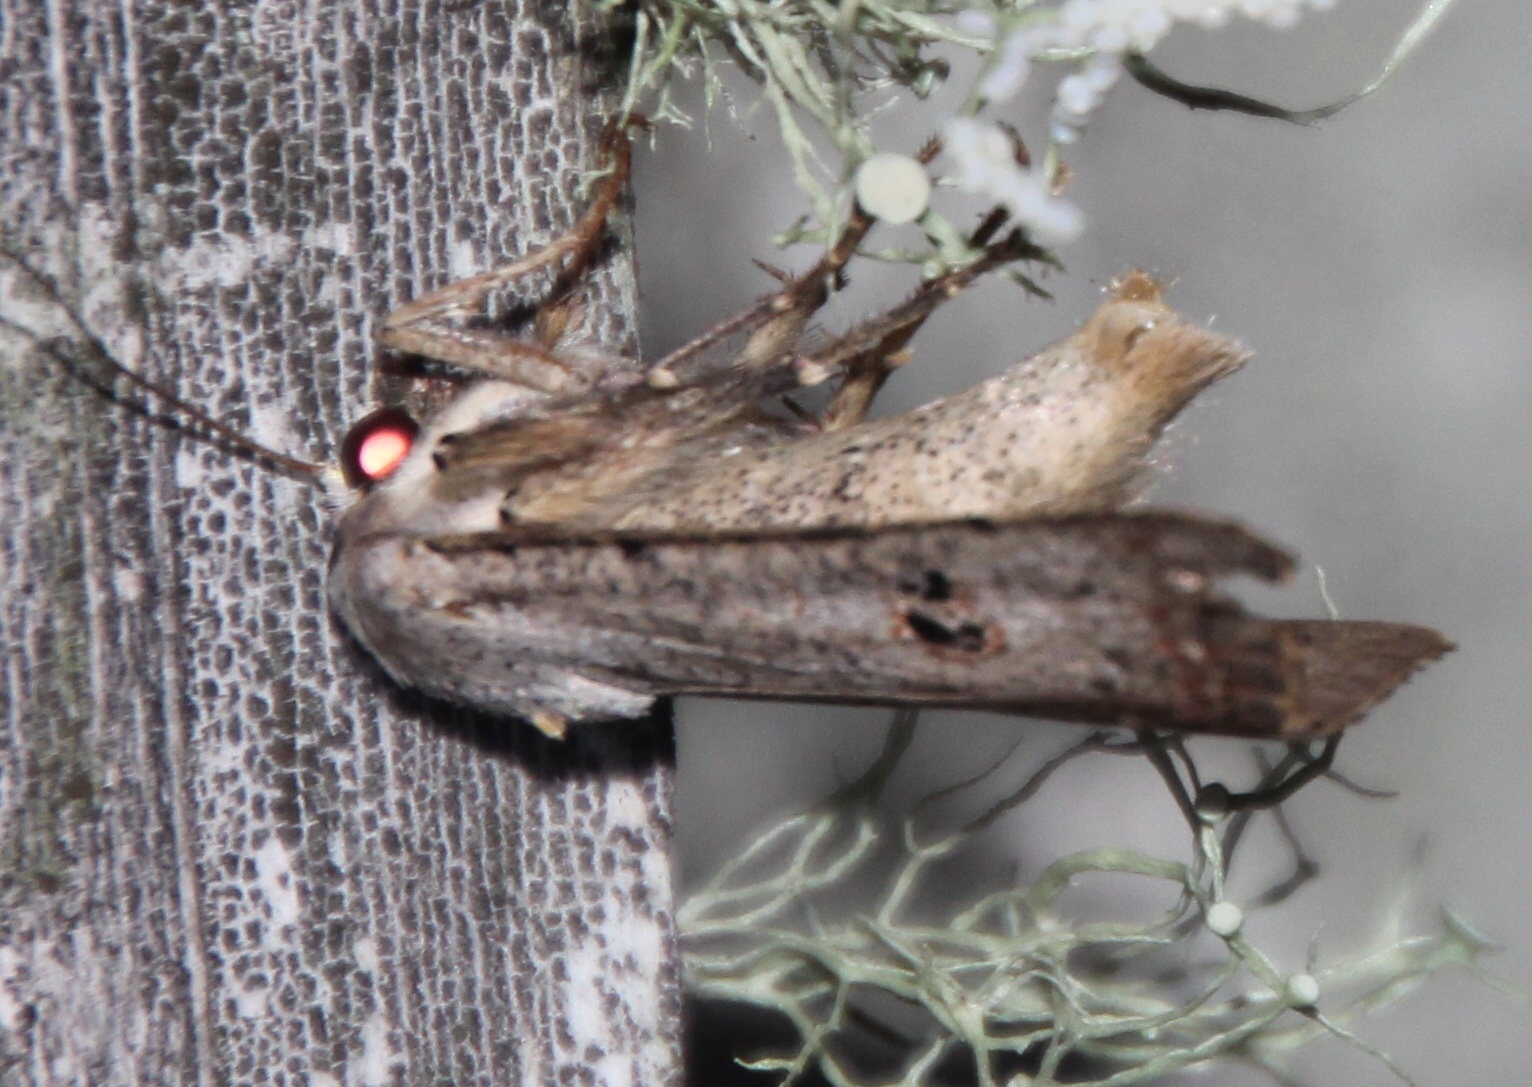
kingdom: Animalia
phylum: Arthropoda
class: Insecta
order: Lepidoptera
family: Noctuidae
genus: Anicla
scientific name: Anicla infecta
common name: Green cutworm
